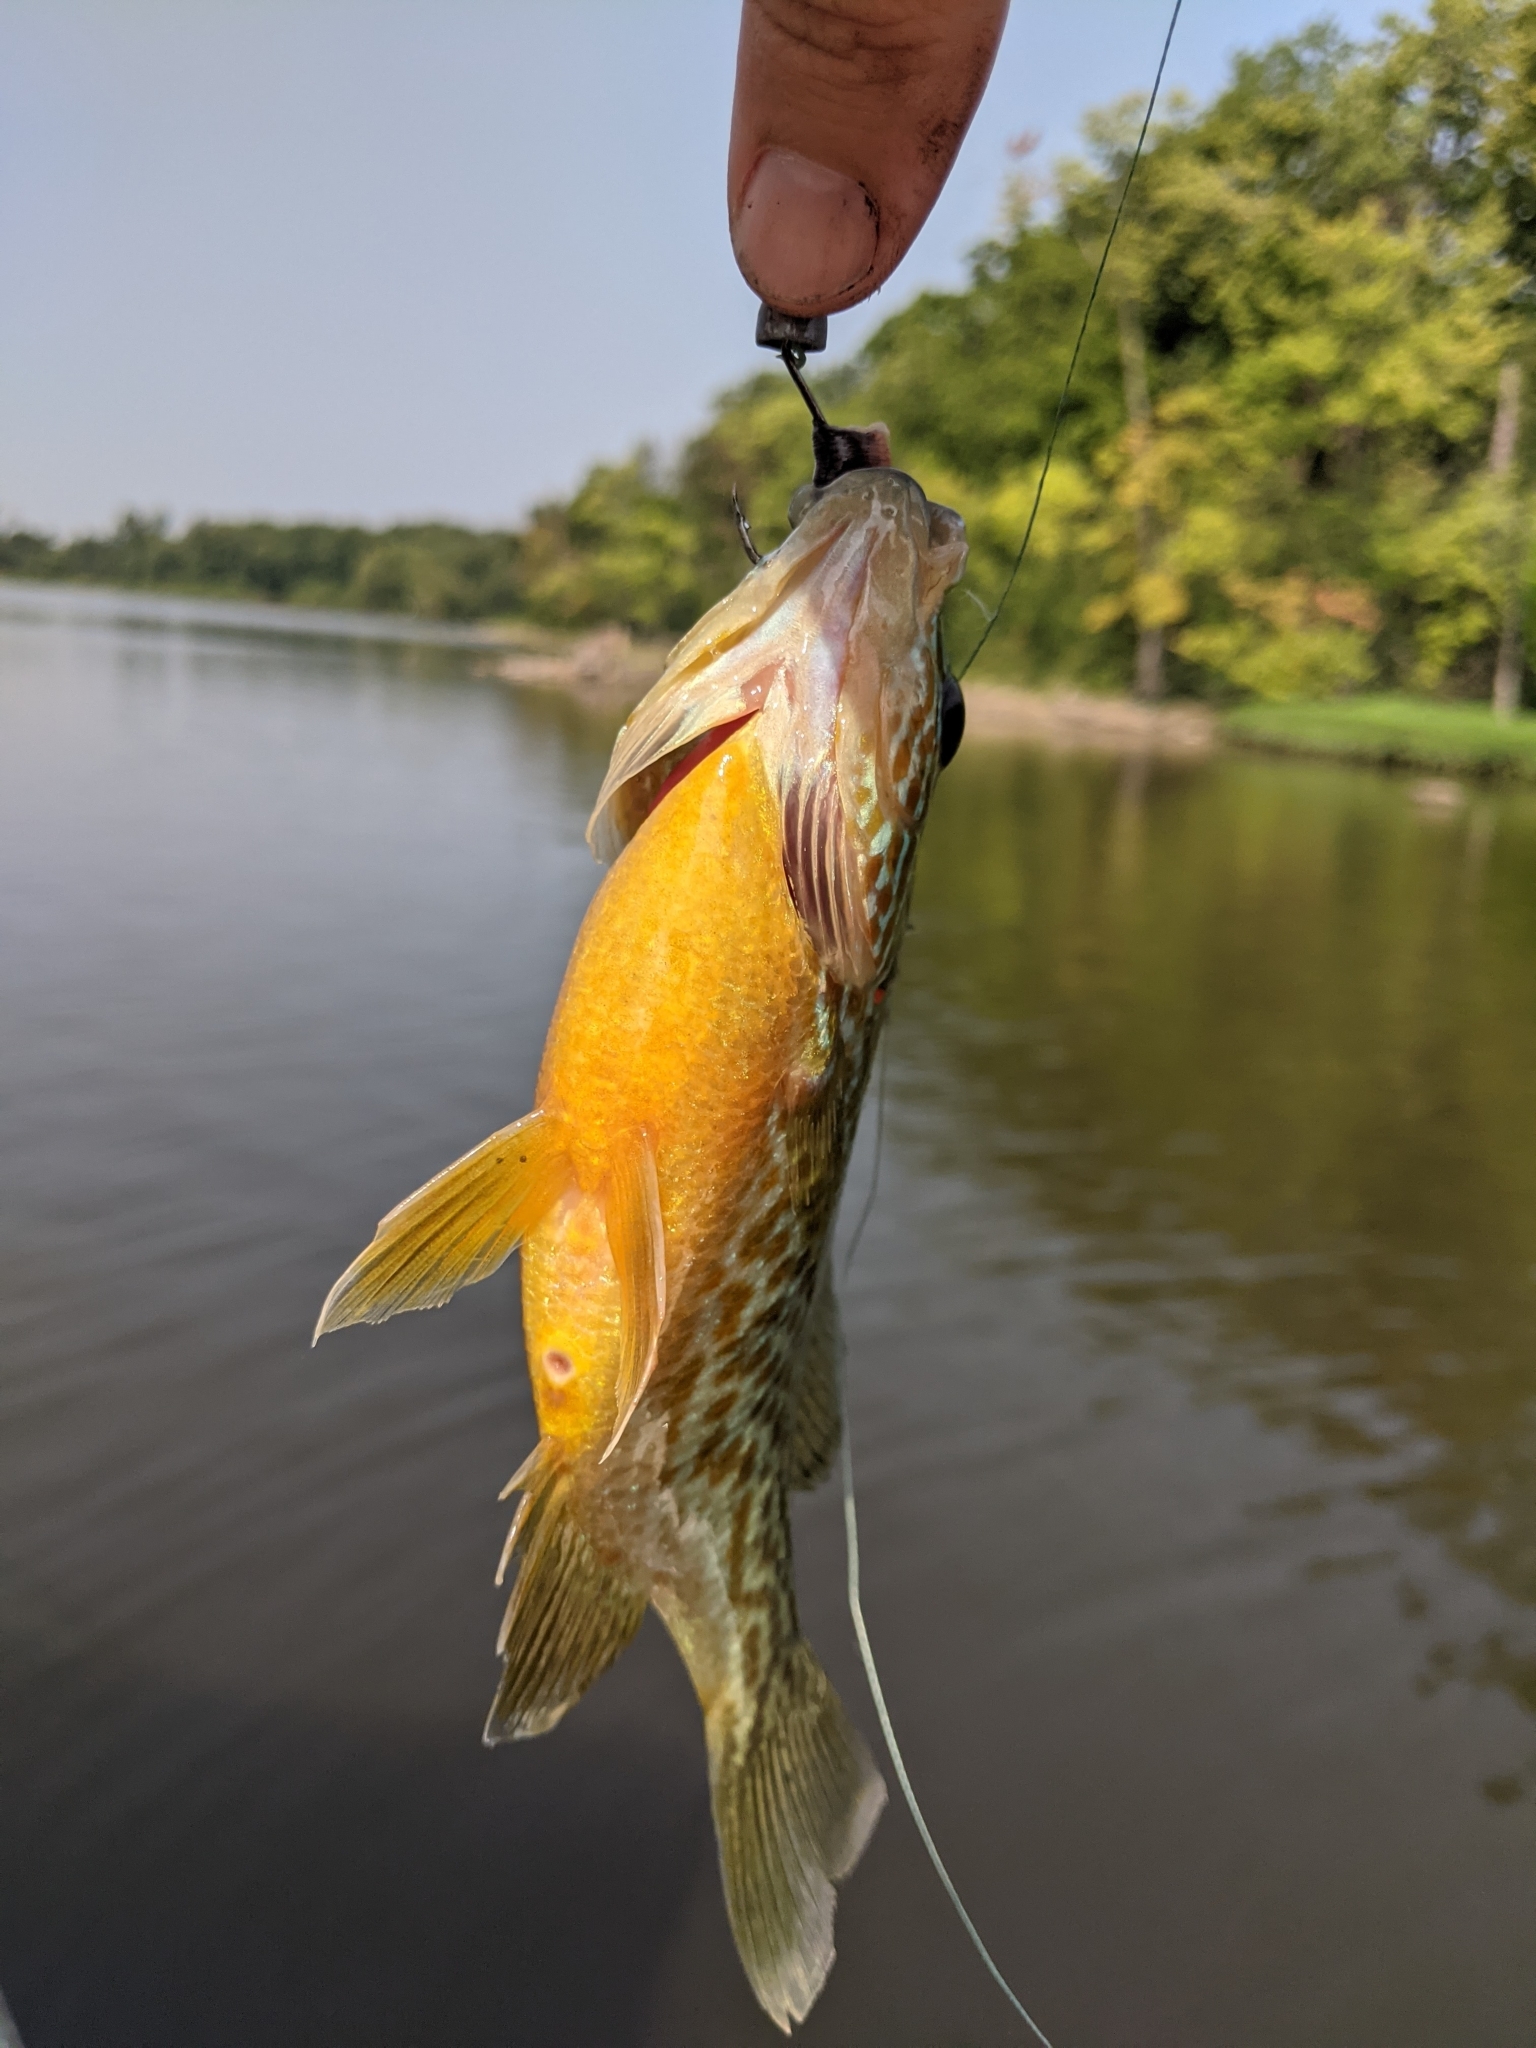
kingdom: Animalia
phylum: Chordata
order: Perciformes
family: Centrarchidae
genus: Lepomis
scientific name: Lepomis gibbosus
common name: Pumpkinseed
